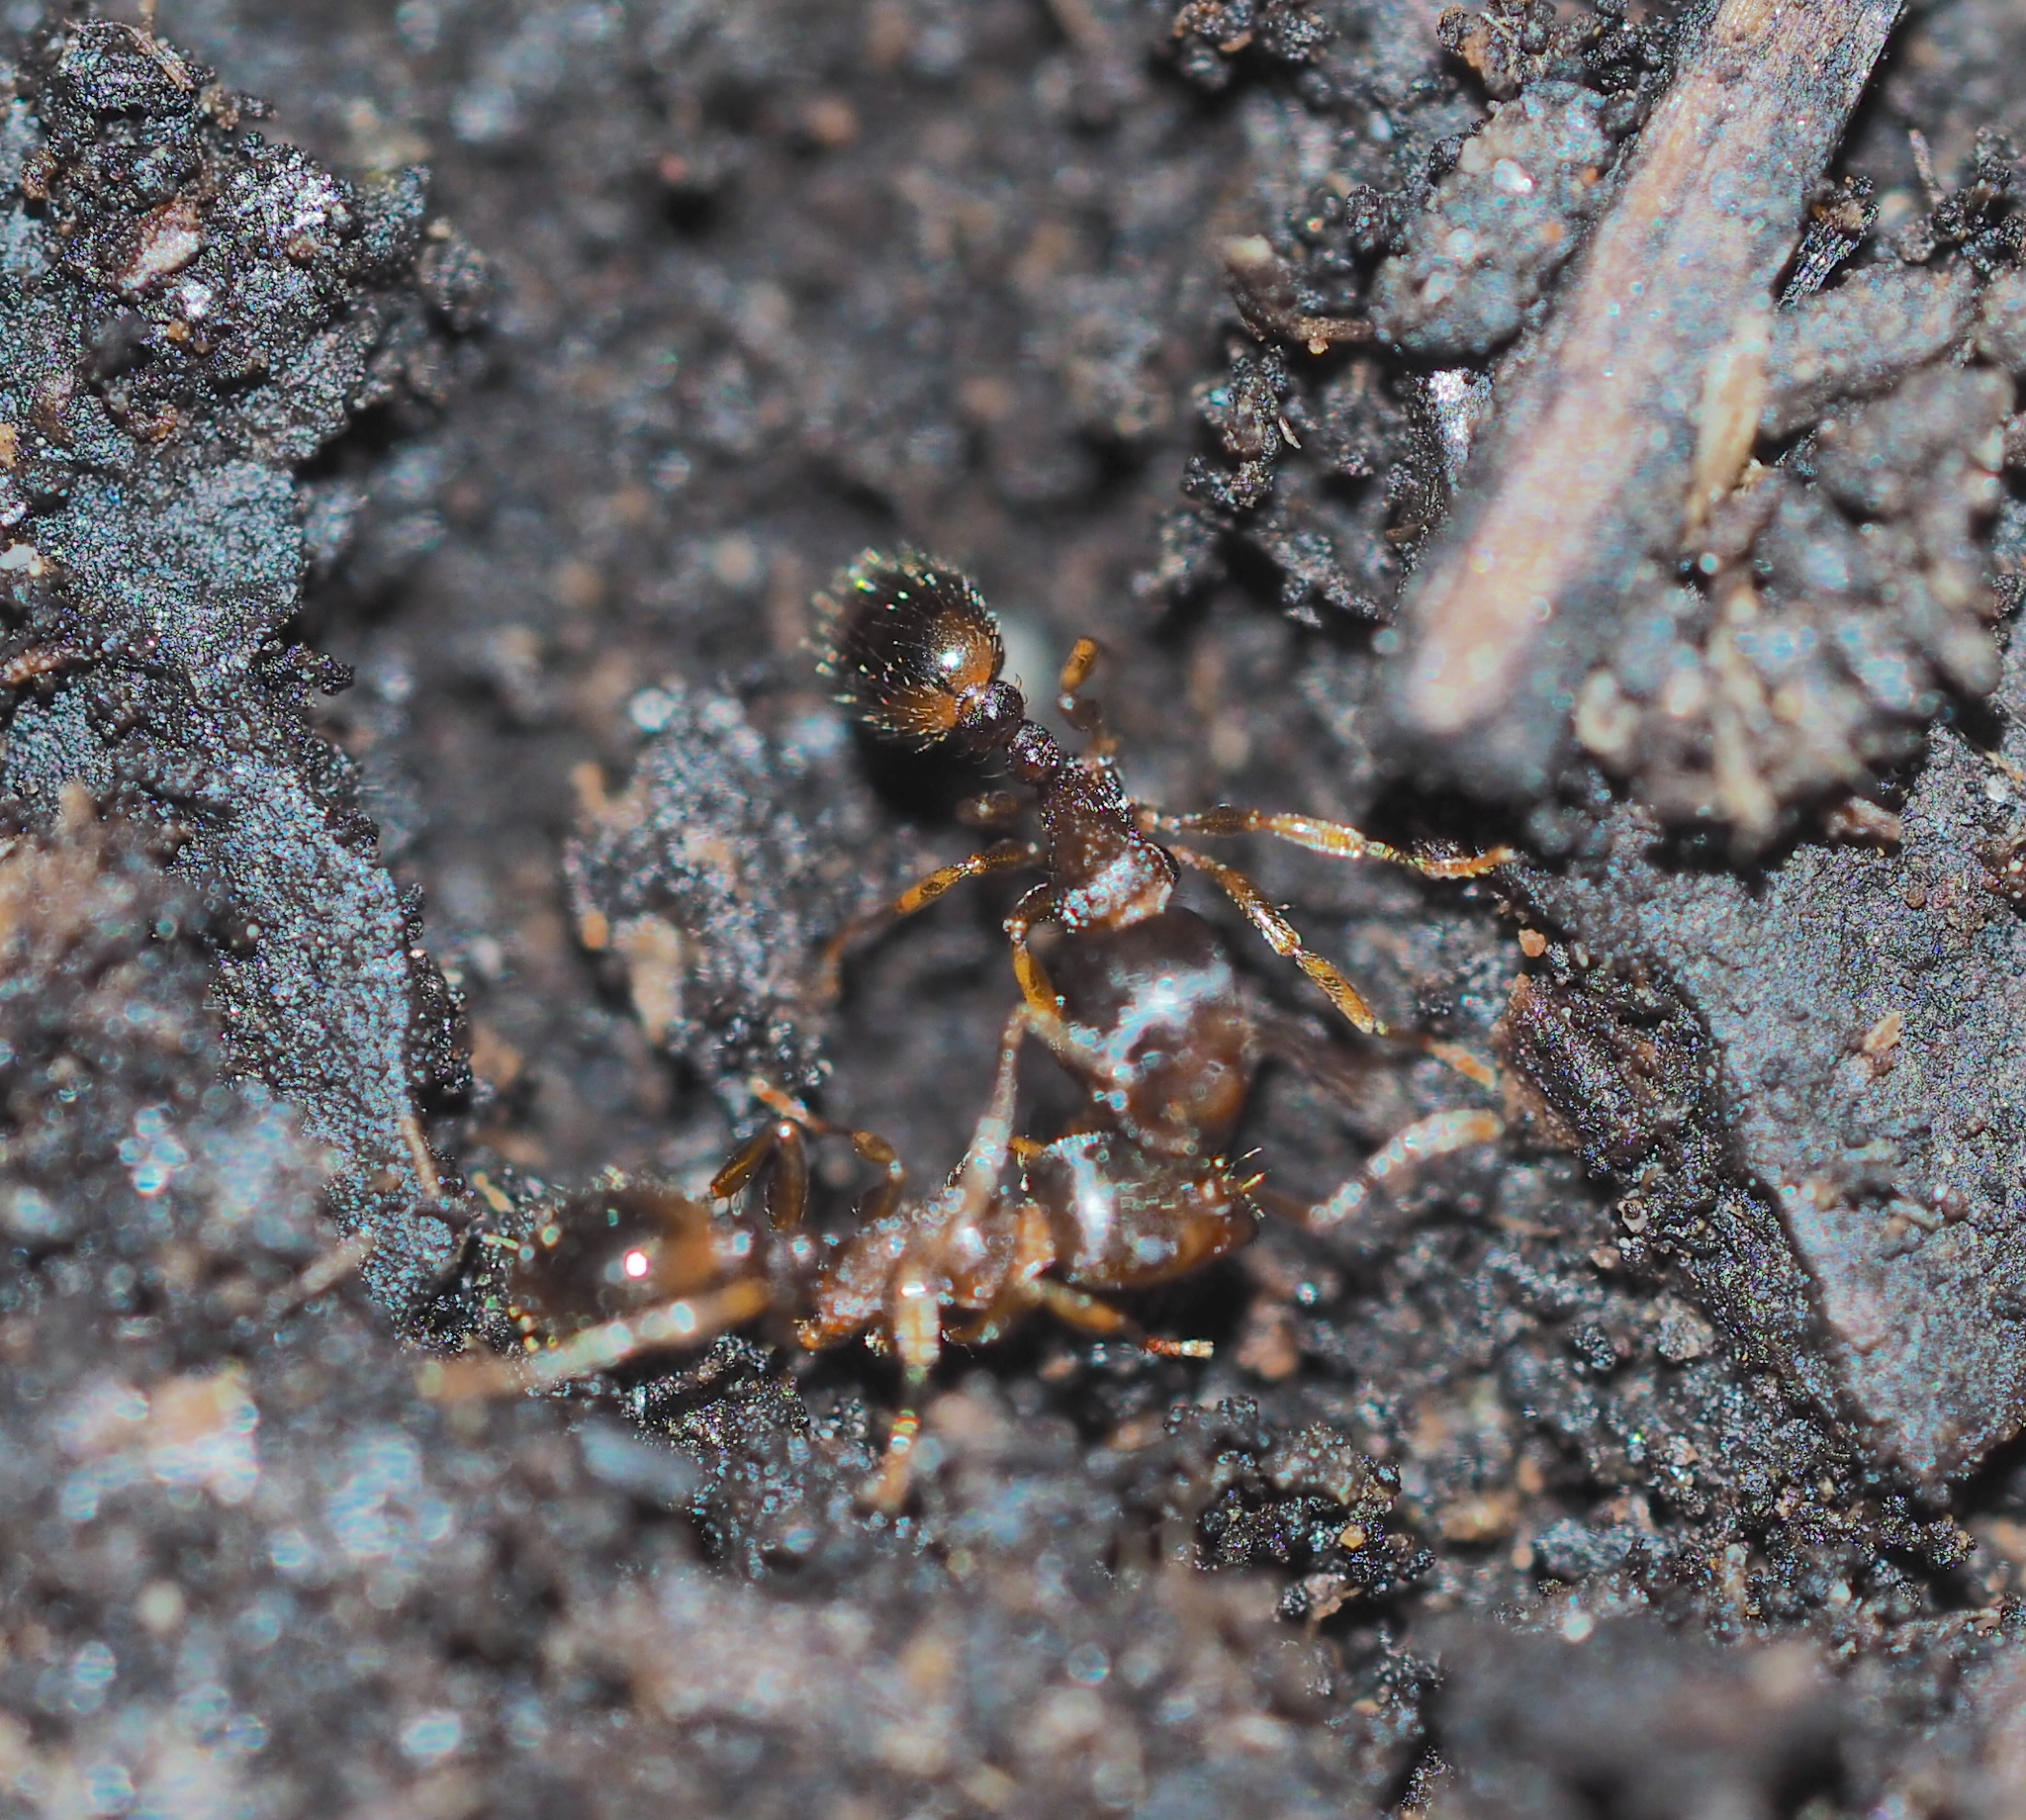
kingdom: Animalia
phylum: Arthropoda
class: Insecta
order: Hymenoptera
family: Formicidae
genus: Tetramorium
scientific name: Tetramorium
